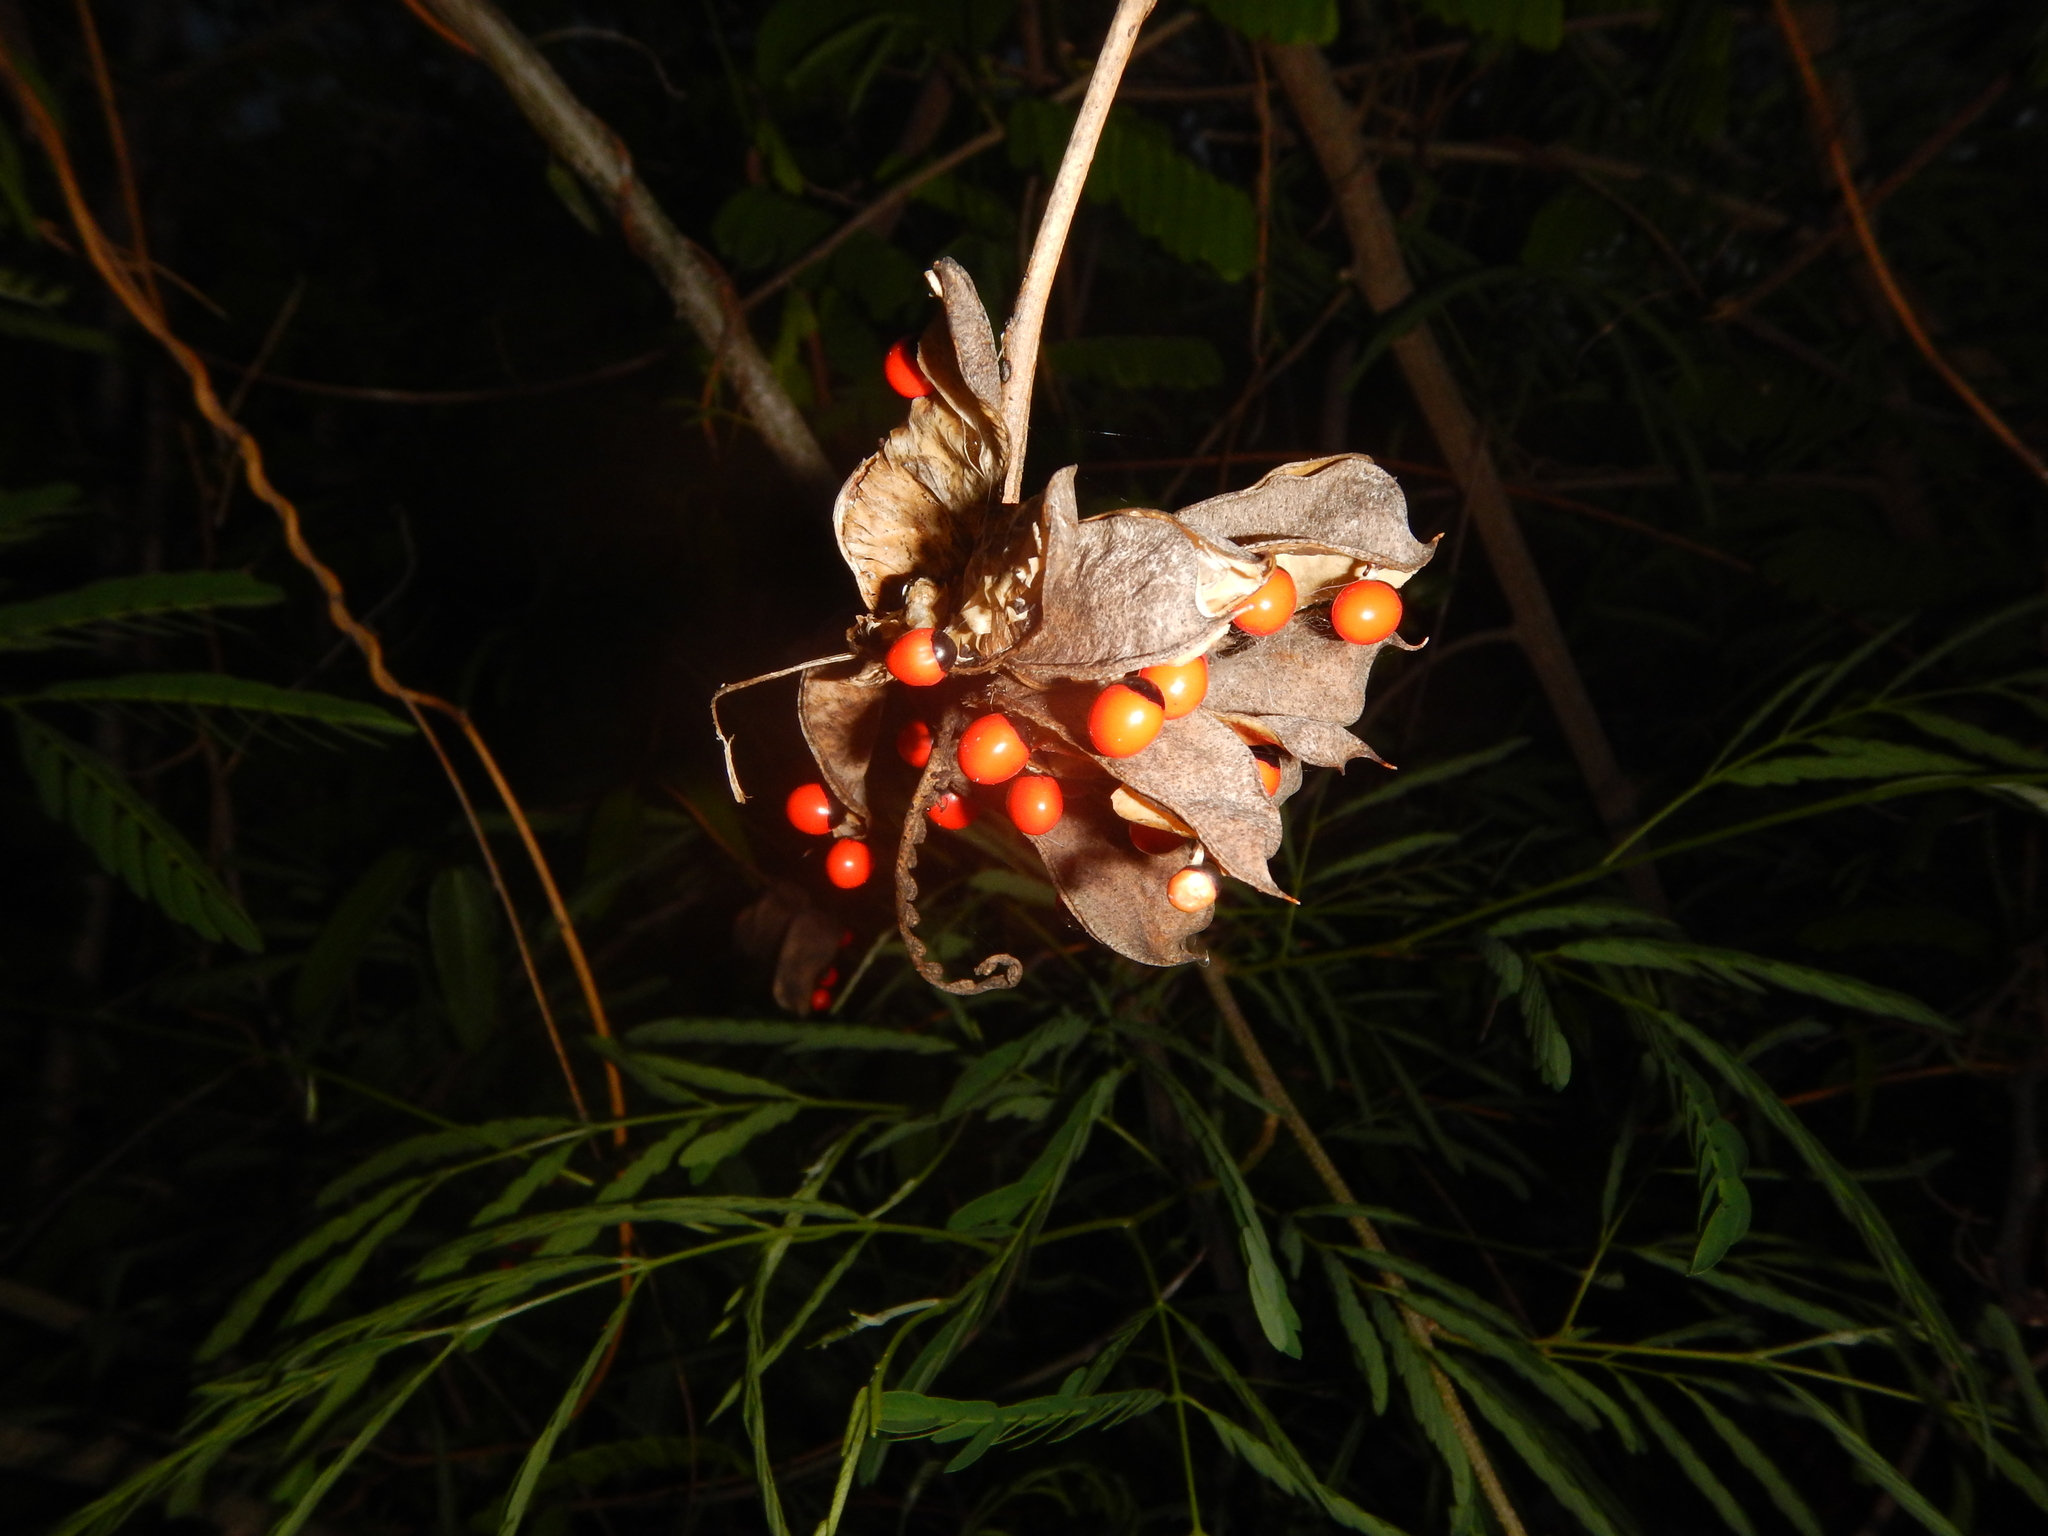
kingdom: Plantae
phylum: Tracheophyta
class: Magnoliopsida
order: Fabales
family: Fabaceae
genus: Abrus
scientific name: Abrus precatorius
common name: Rosarypea
